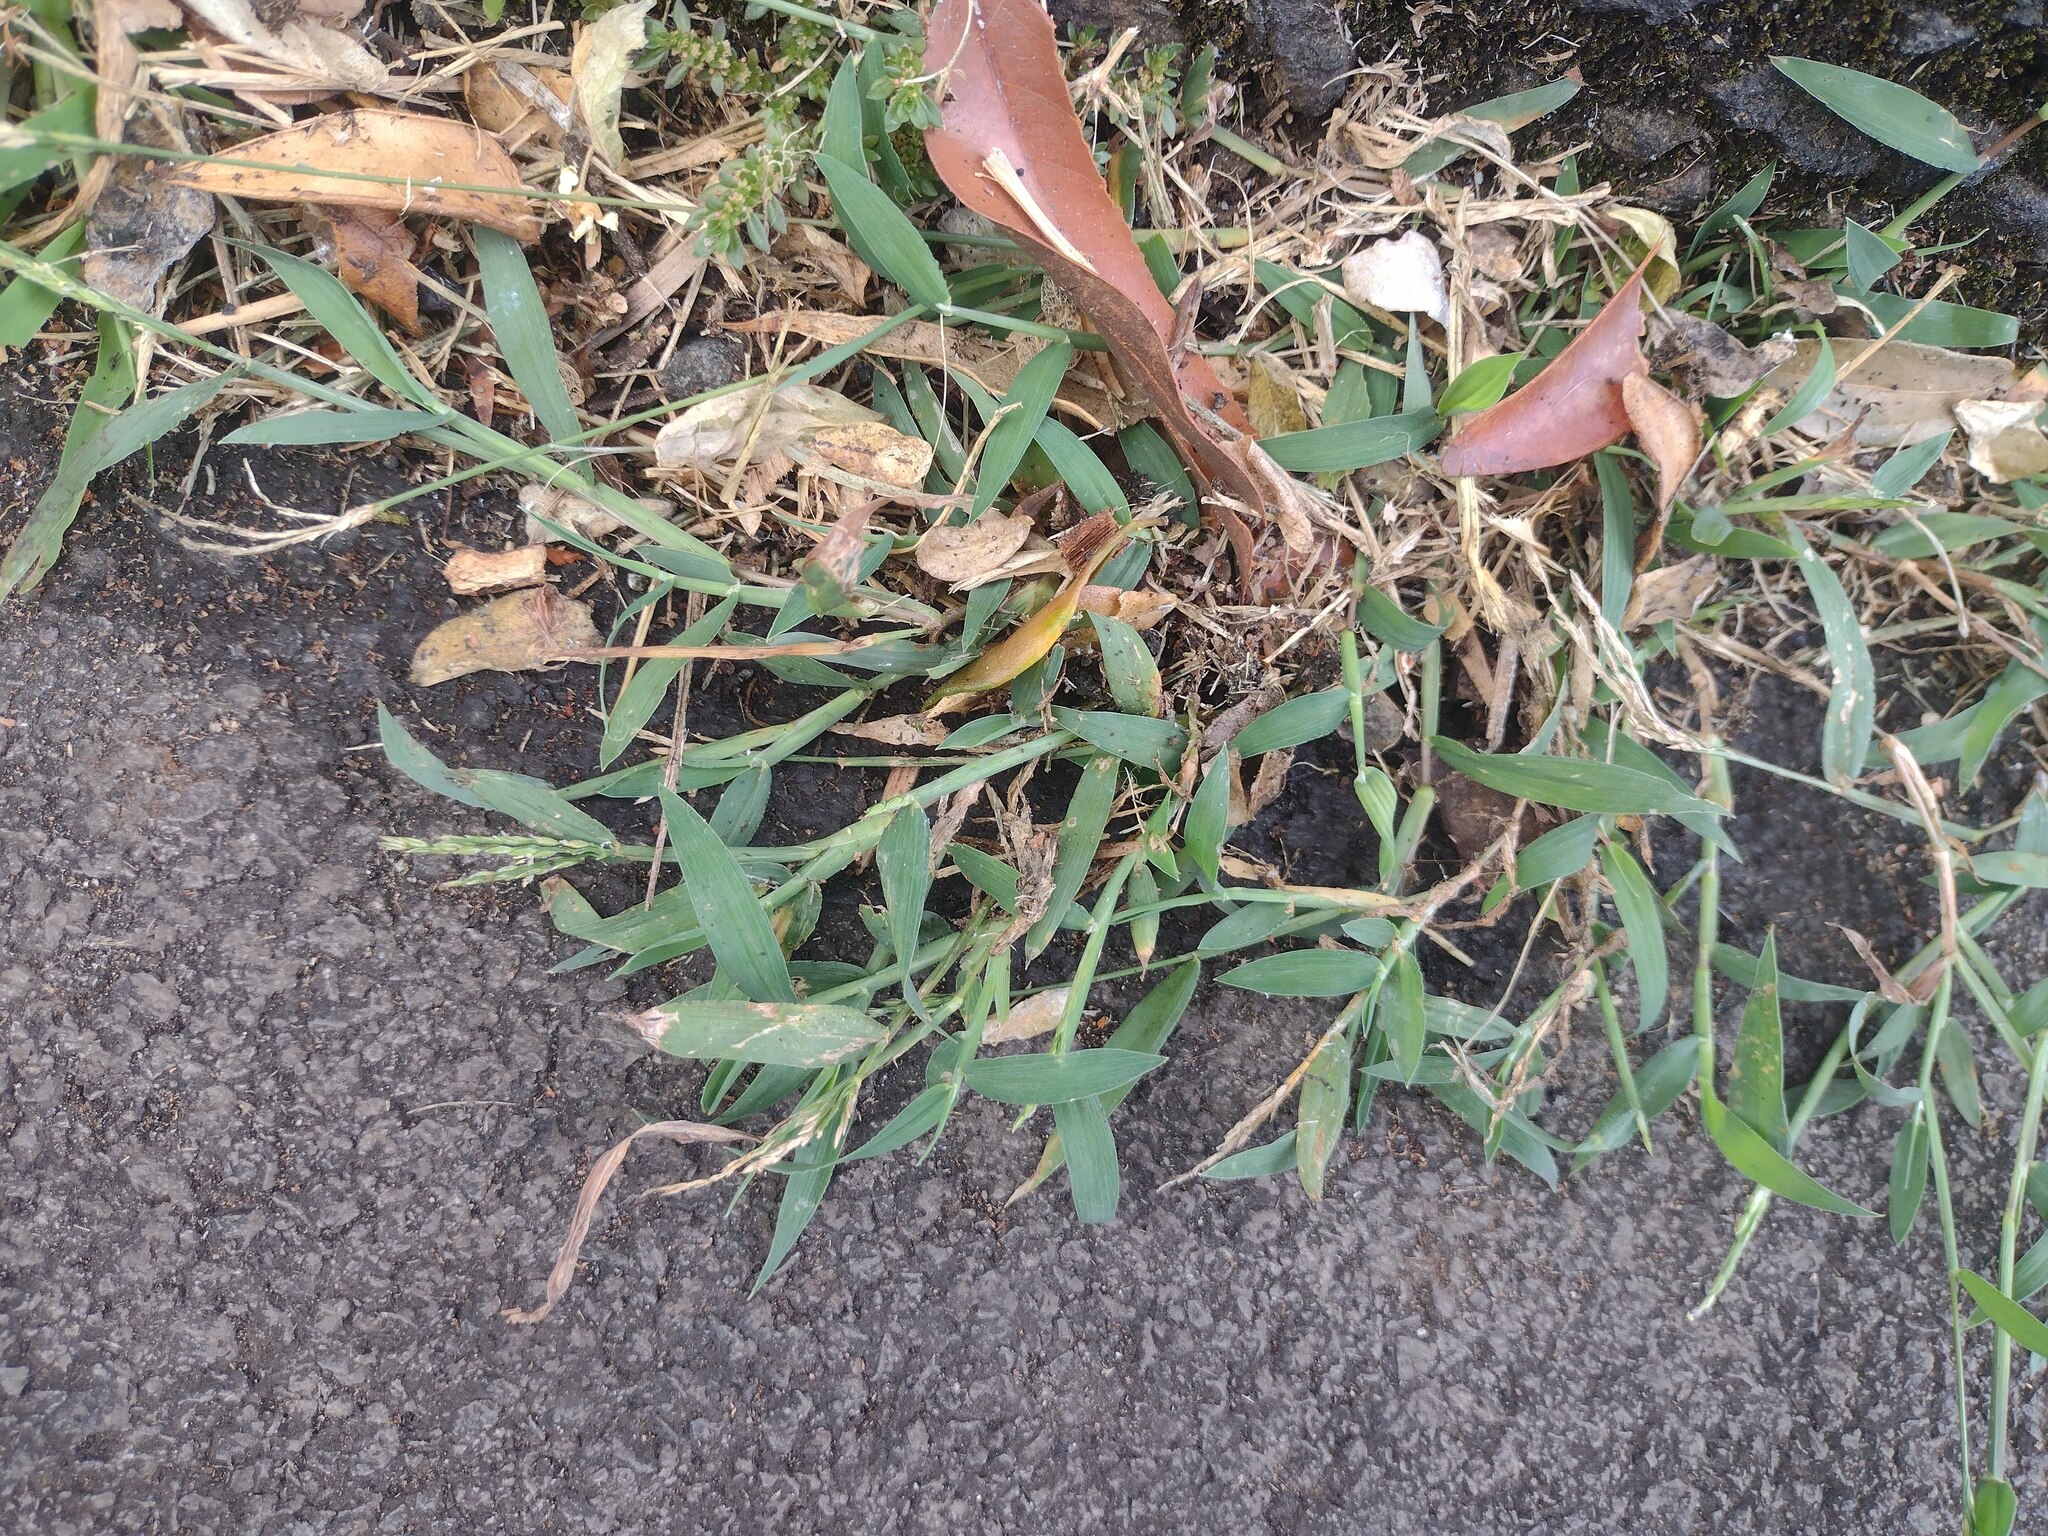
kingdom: Plantae
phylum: Tracheophyta
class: Liliopsida
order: Poales
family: Poaceae
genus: Digitaria
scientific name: Digitaria ciliaris
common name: Tropical finger-grass
